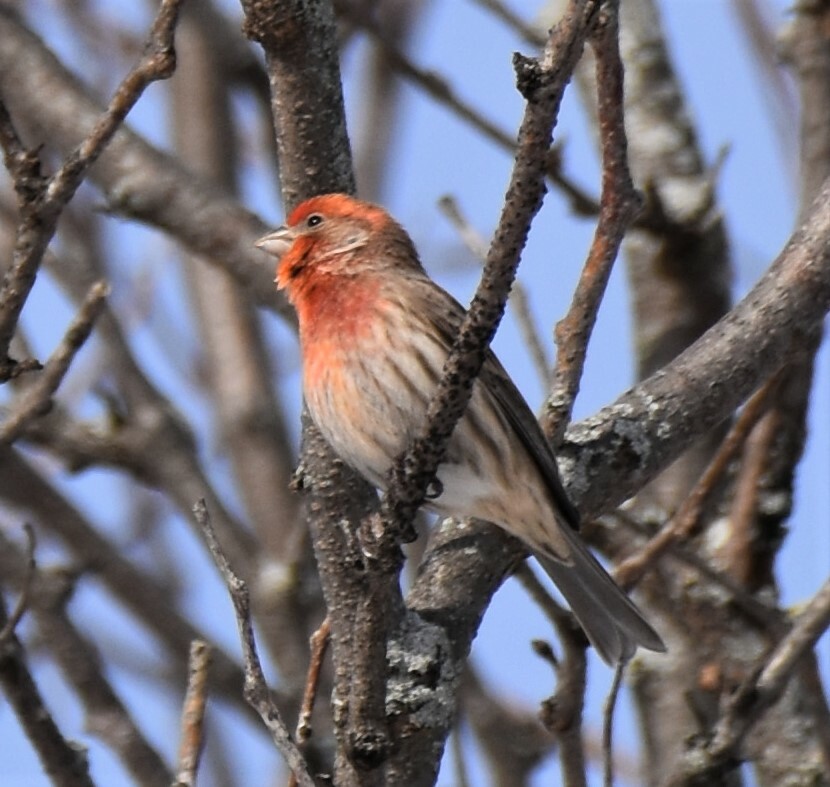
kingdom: Animalia
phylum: Chordata
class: Aves
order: Passeriformes
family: Fringillidae
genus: Haemorhous
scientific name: Haemorhous mexicanus
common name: House finch
